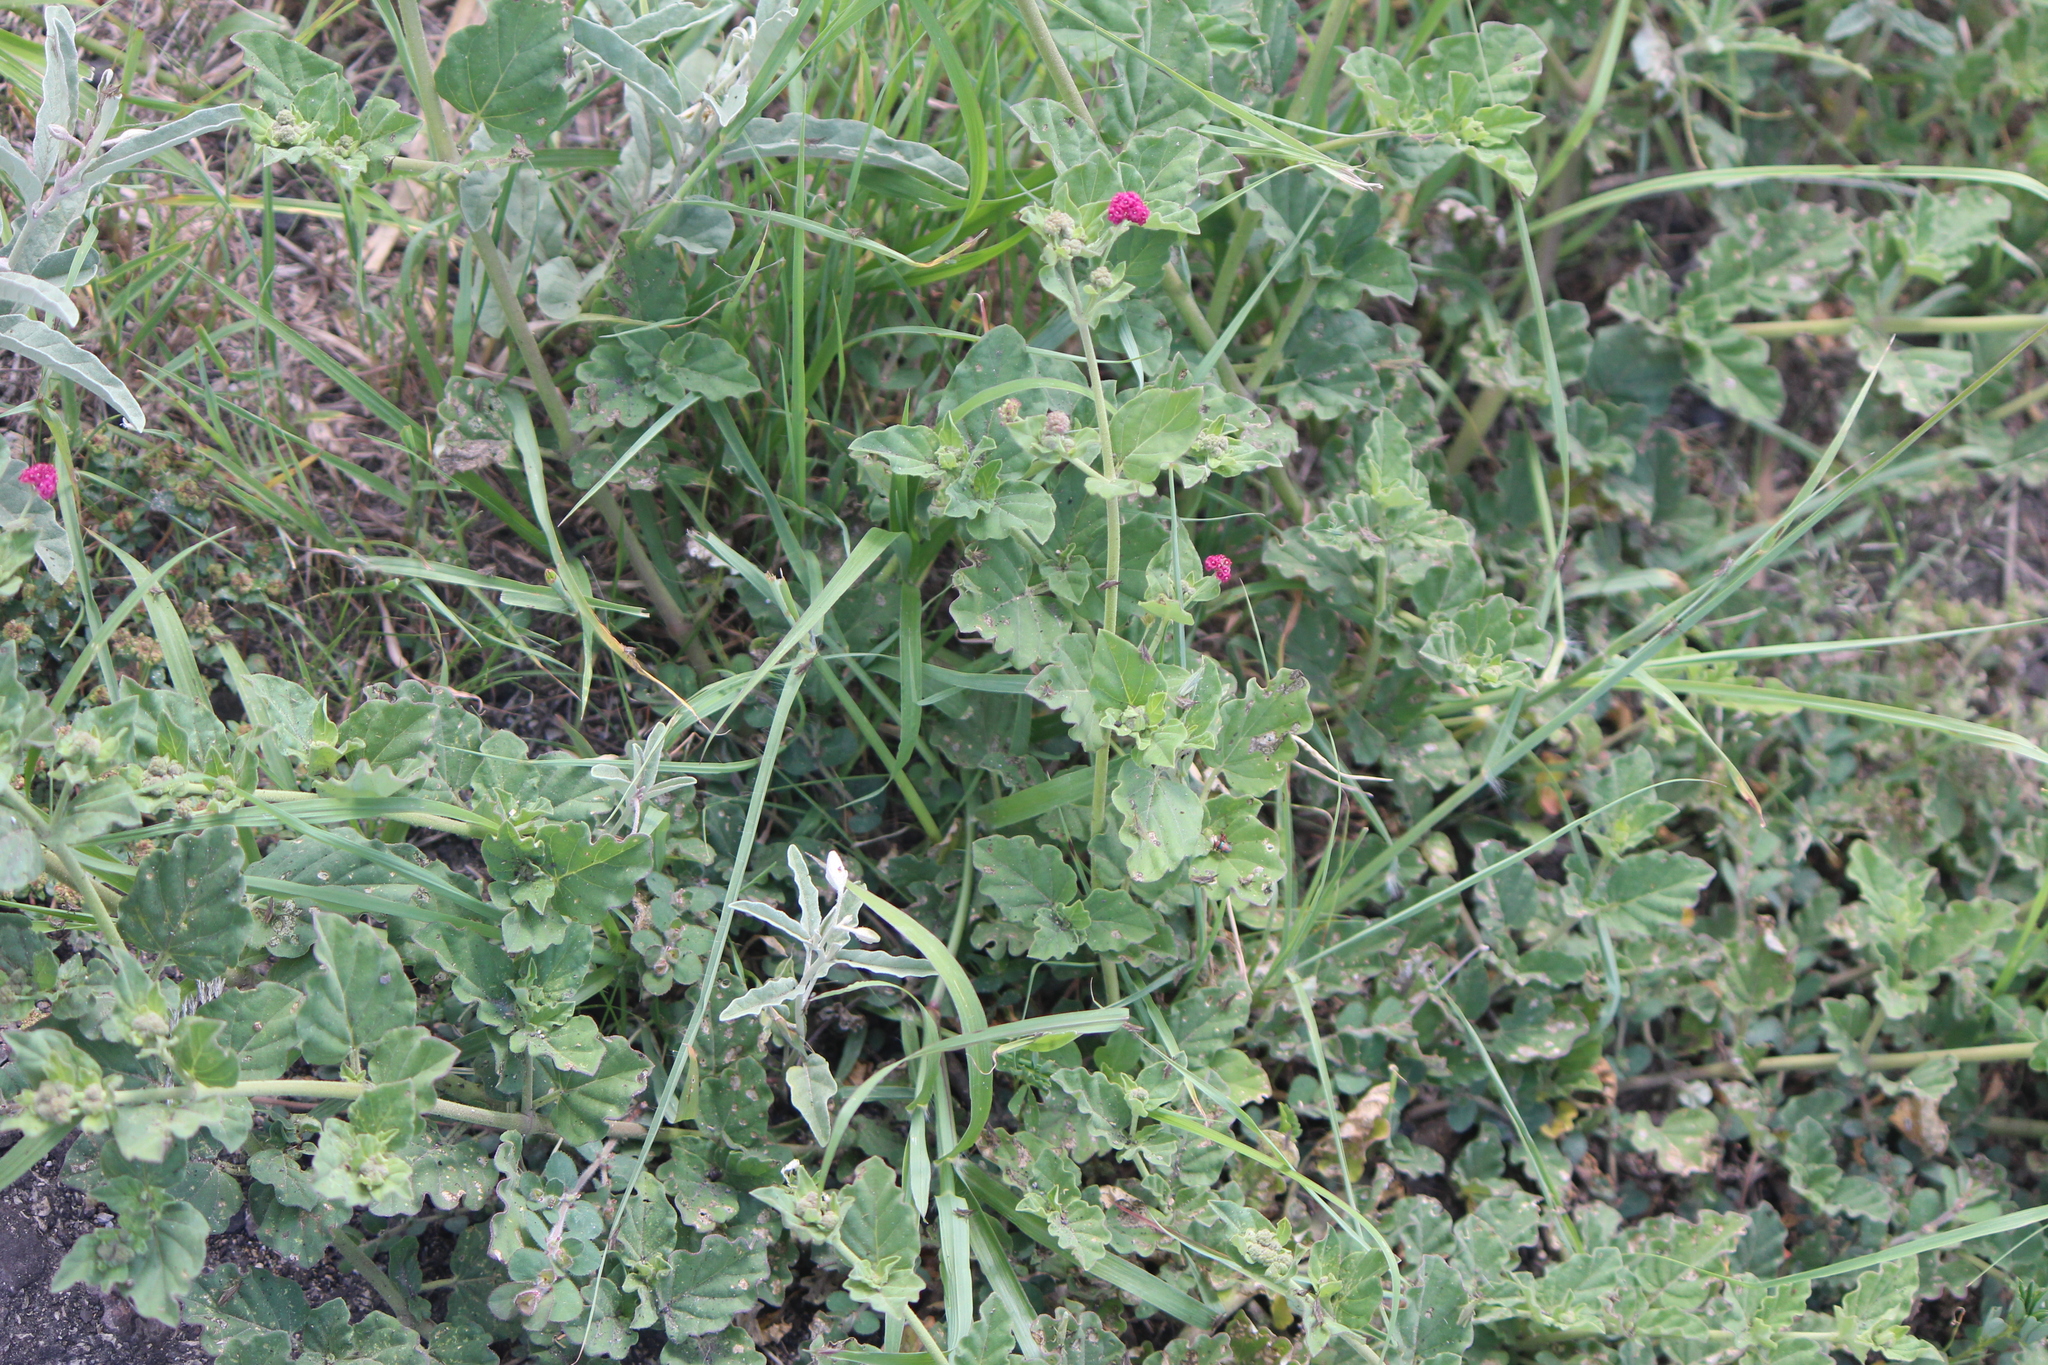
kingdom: Plantae
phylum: Tracheophyta
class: Magnoliopsida
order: Caryophyllales
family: Nyctaginaceae
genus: Boerhavia
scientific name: Boerhavia coccinea
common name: Scarlet spiderling
